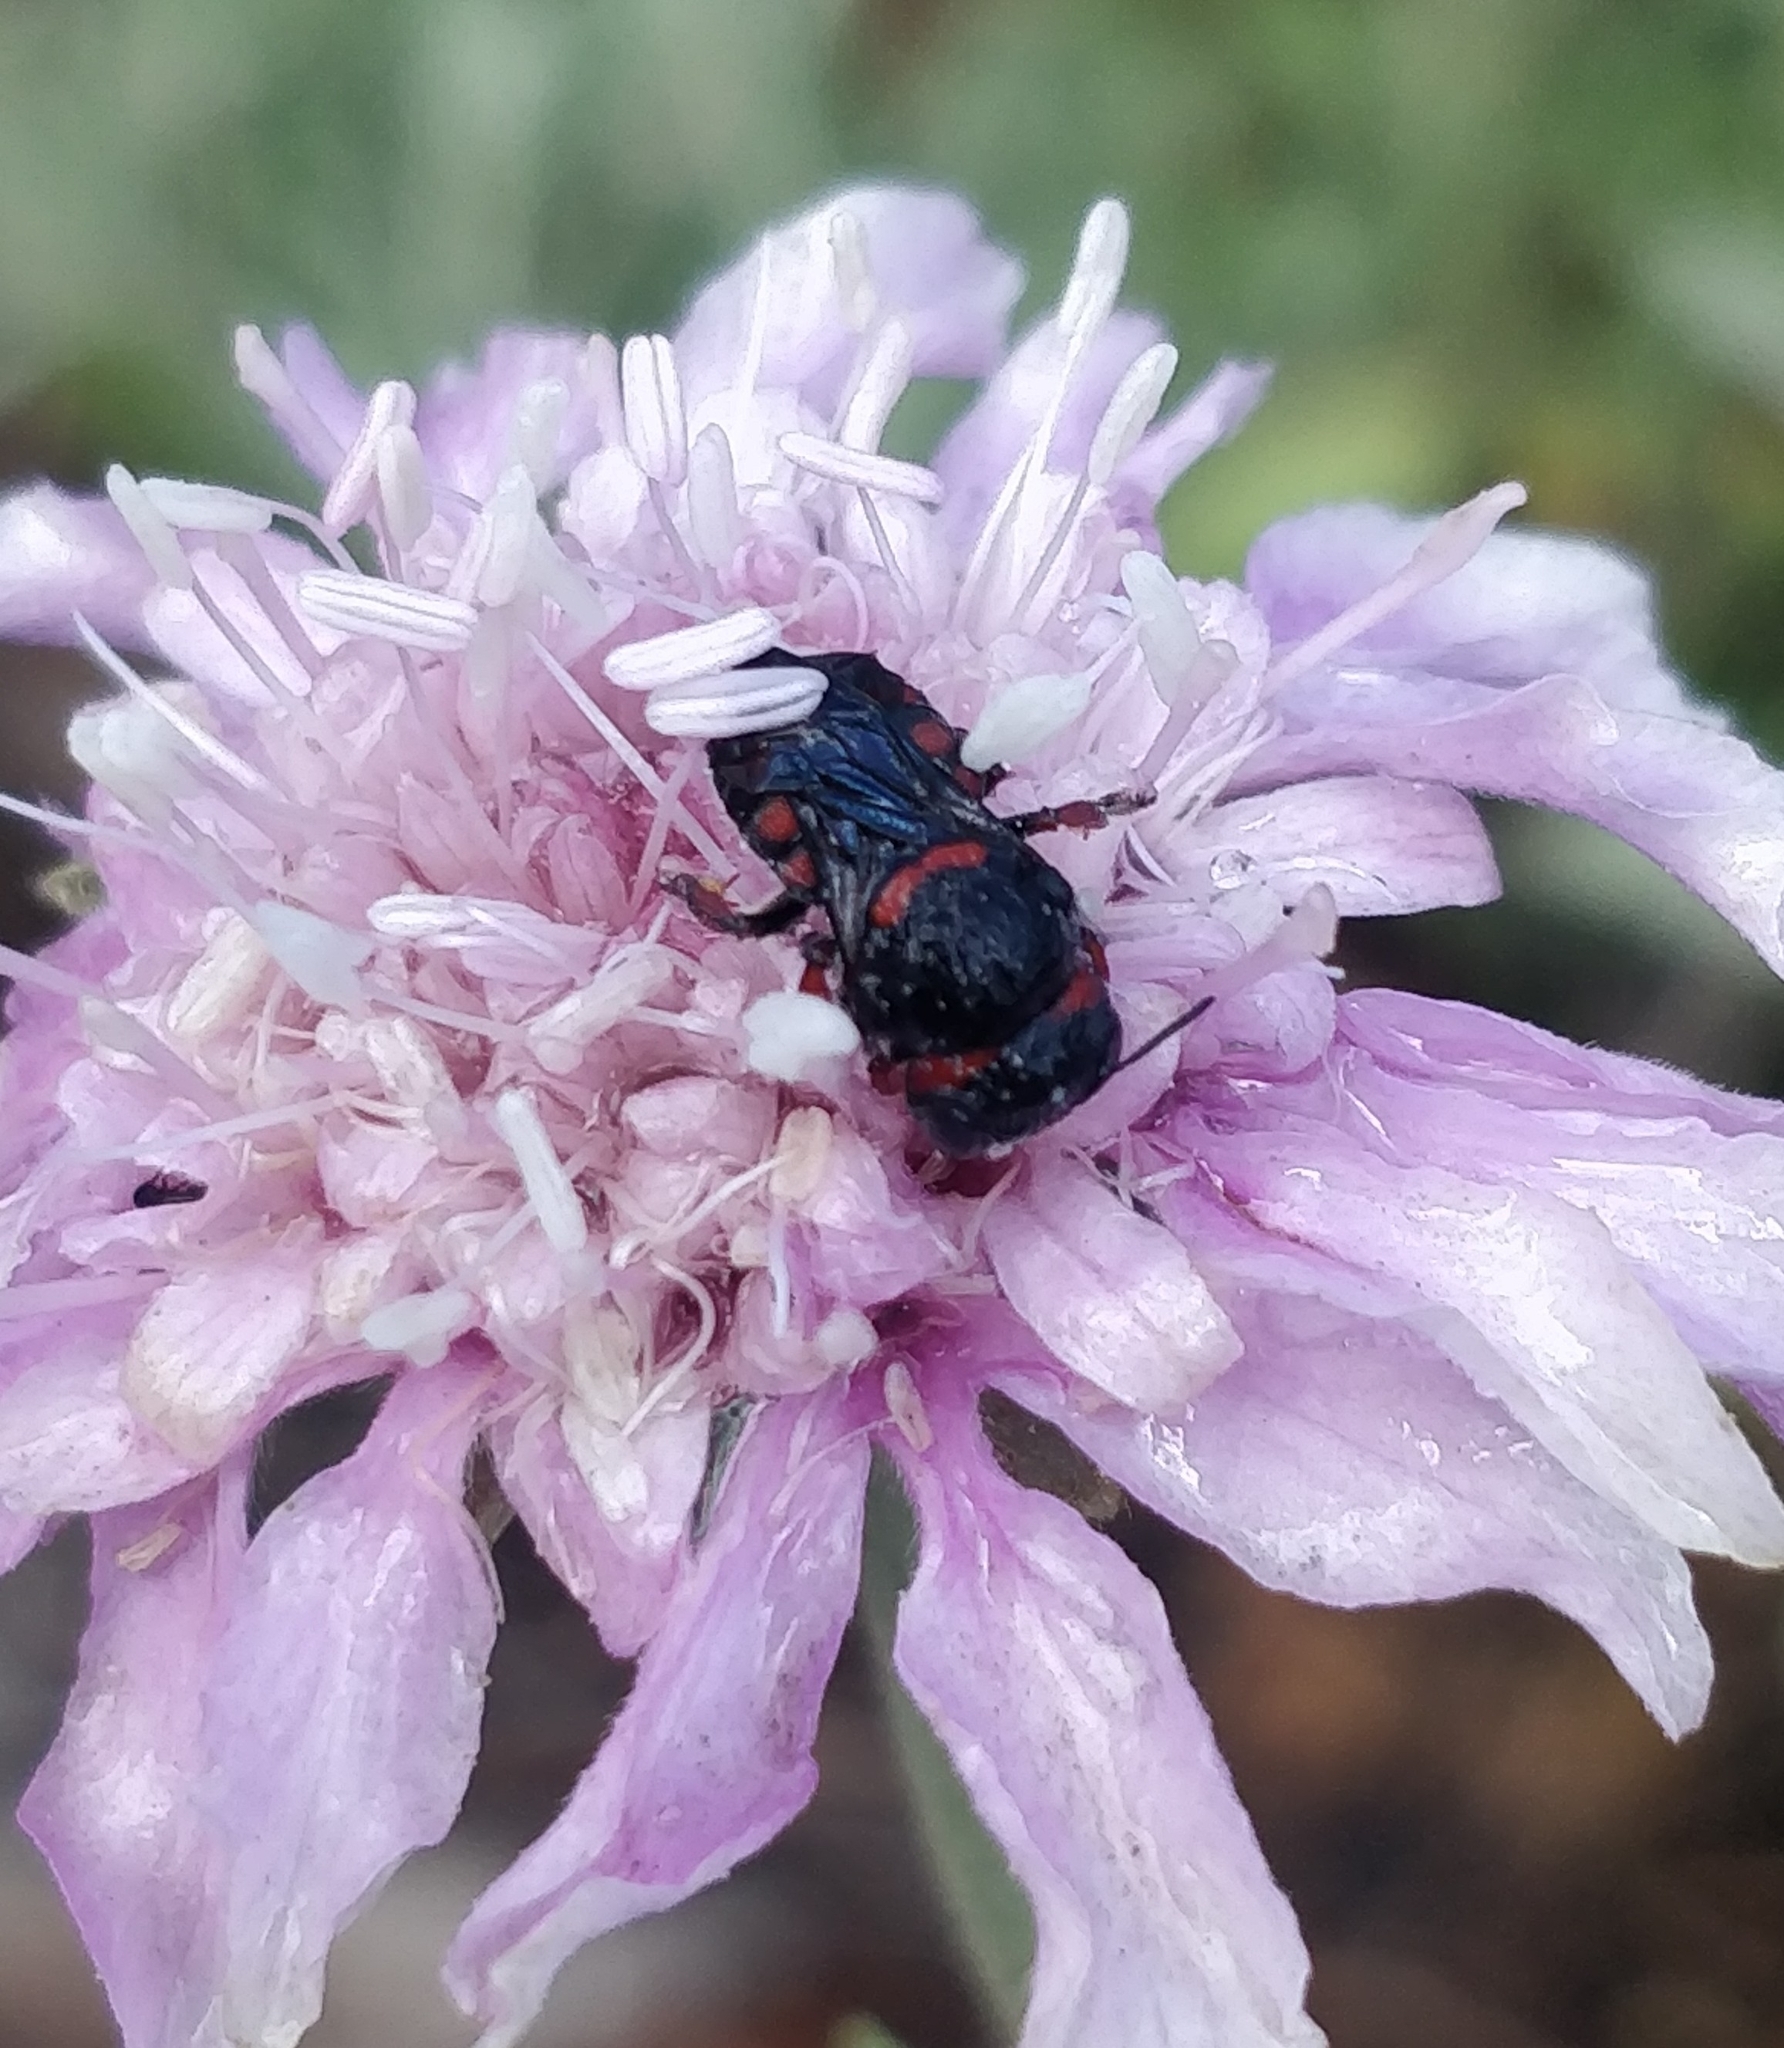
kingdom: Animalia
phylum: Arthropoda
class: Insecta
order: Hymenoptera
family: Megachilidae
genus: Pseudoanthidium
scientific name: Pseudoanthidium canariense
